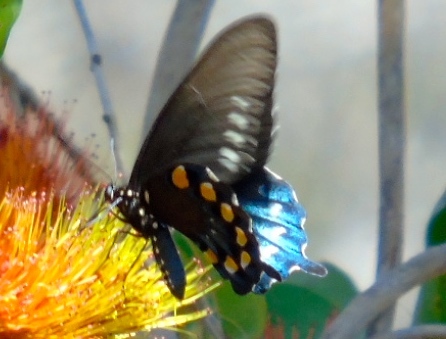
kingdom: Animalia
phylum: Arthropoda
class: Insecta
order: Lepidoptera
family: Papilionidae
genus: Battus
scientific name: Battus philenor
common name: Pipevine swallowtail
